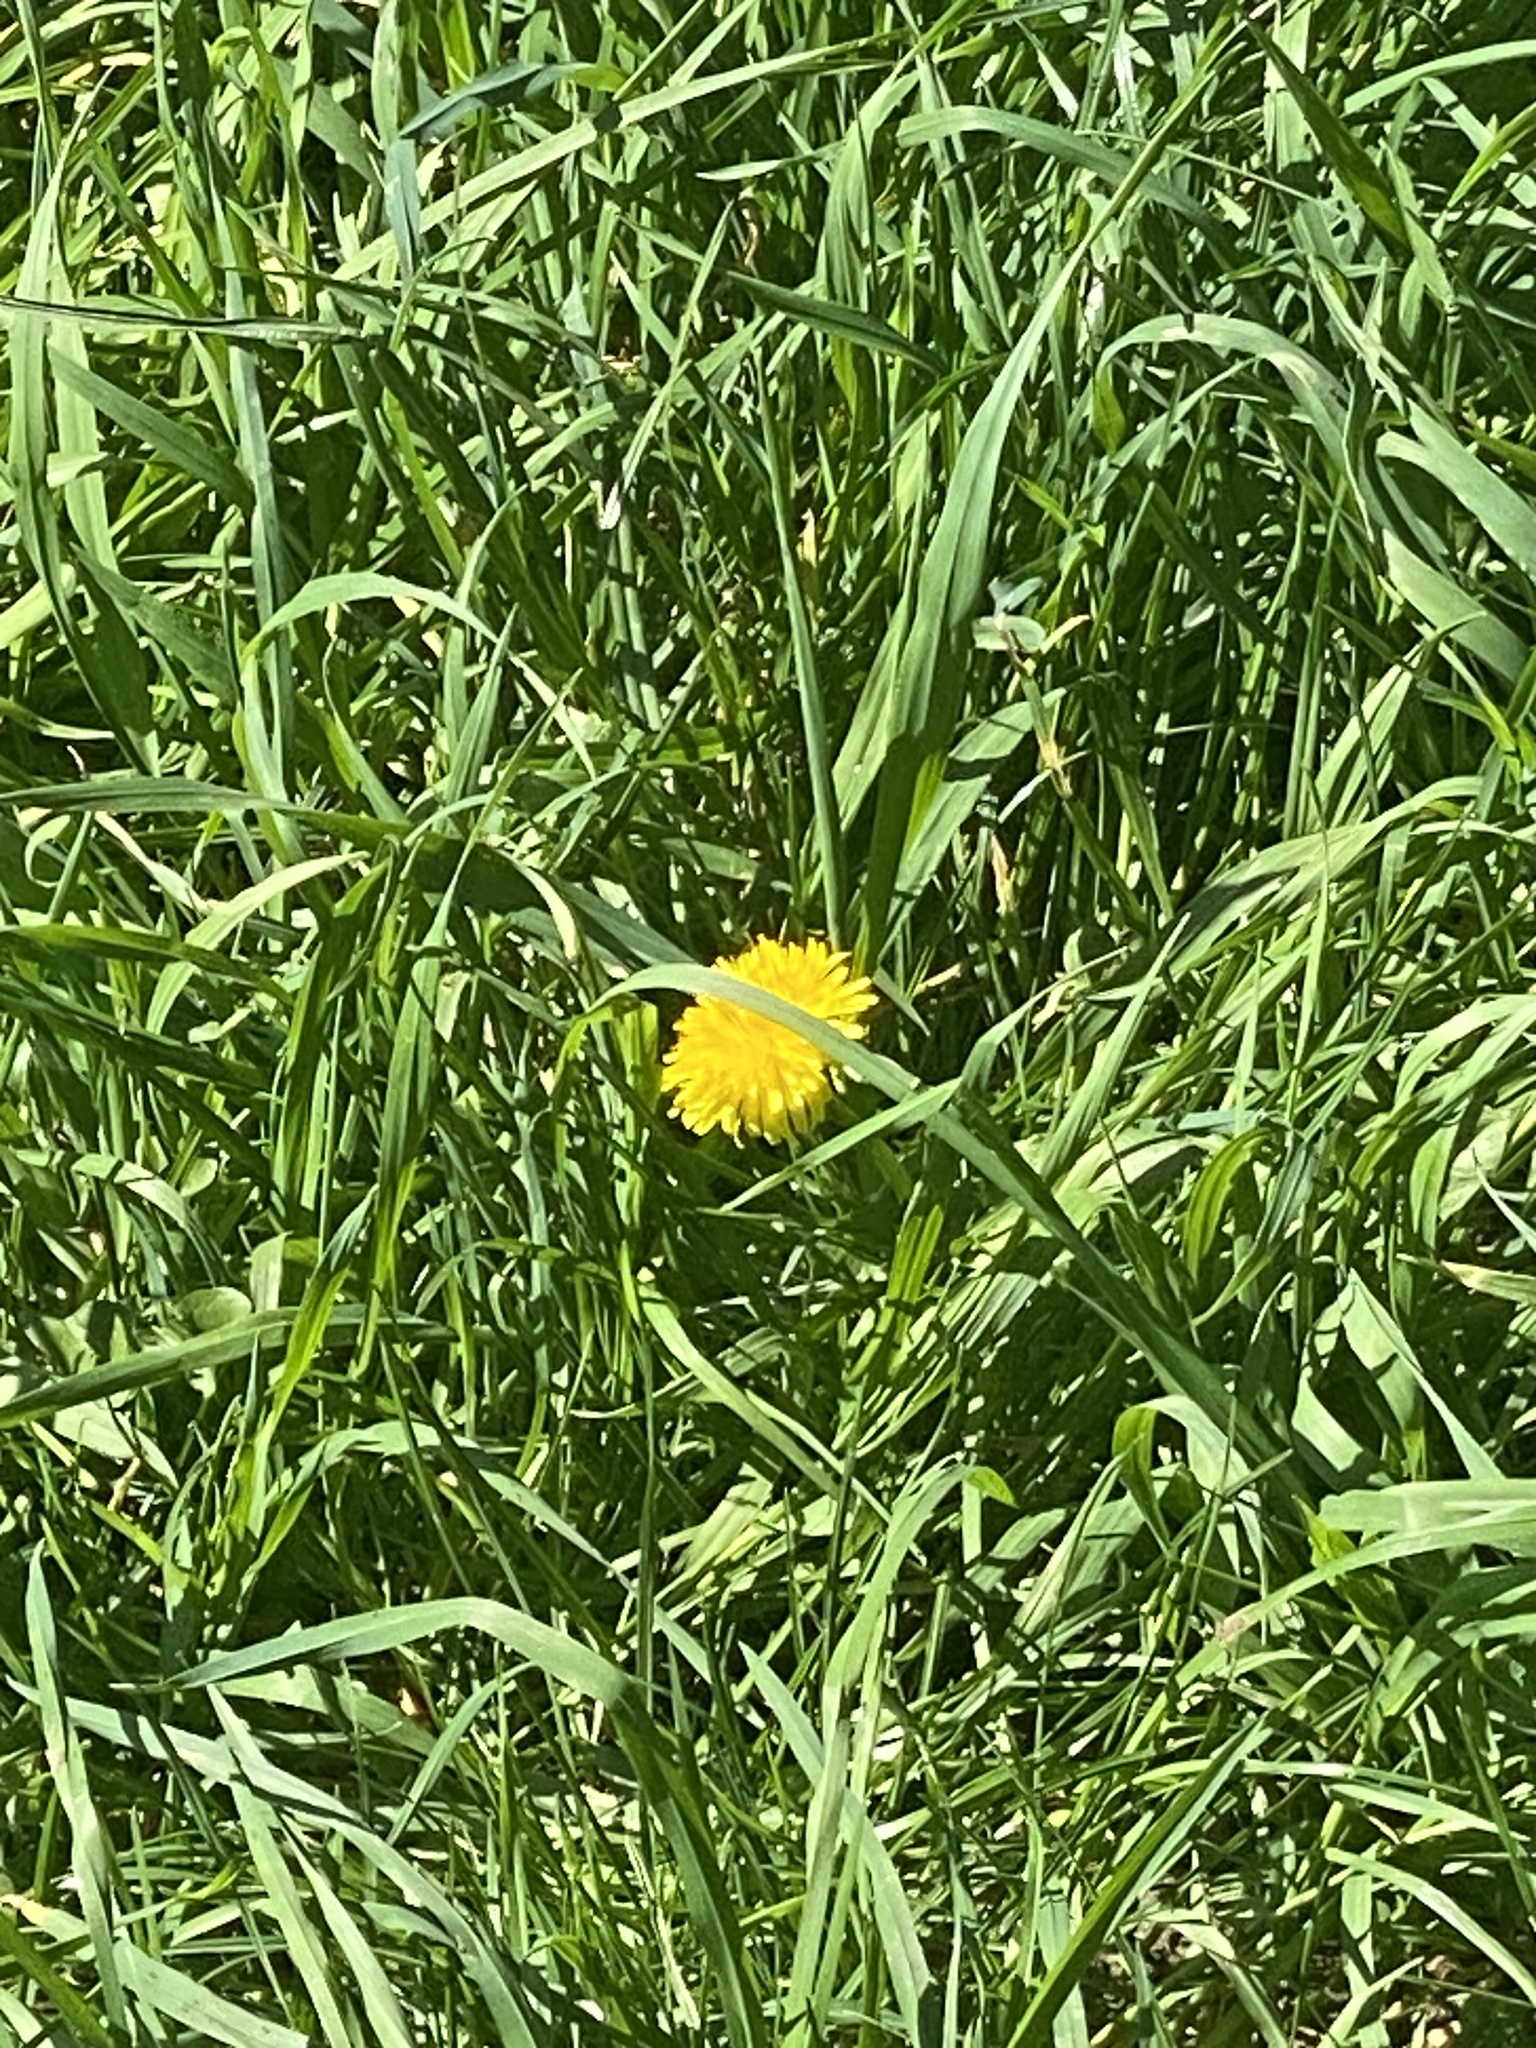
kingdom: Plantae
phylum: Tracheophyta
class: Magnoliopsida
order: Asterales
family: Asteraceae
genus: Taraxacum
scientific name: Taraxacum officinale
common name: Common dandelion
